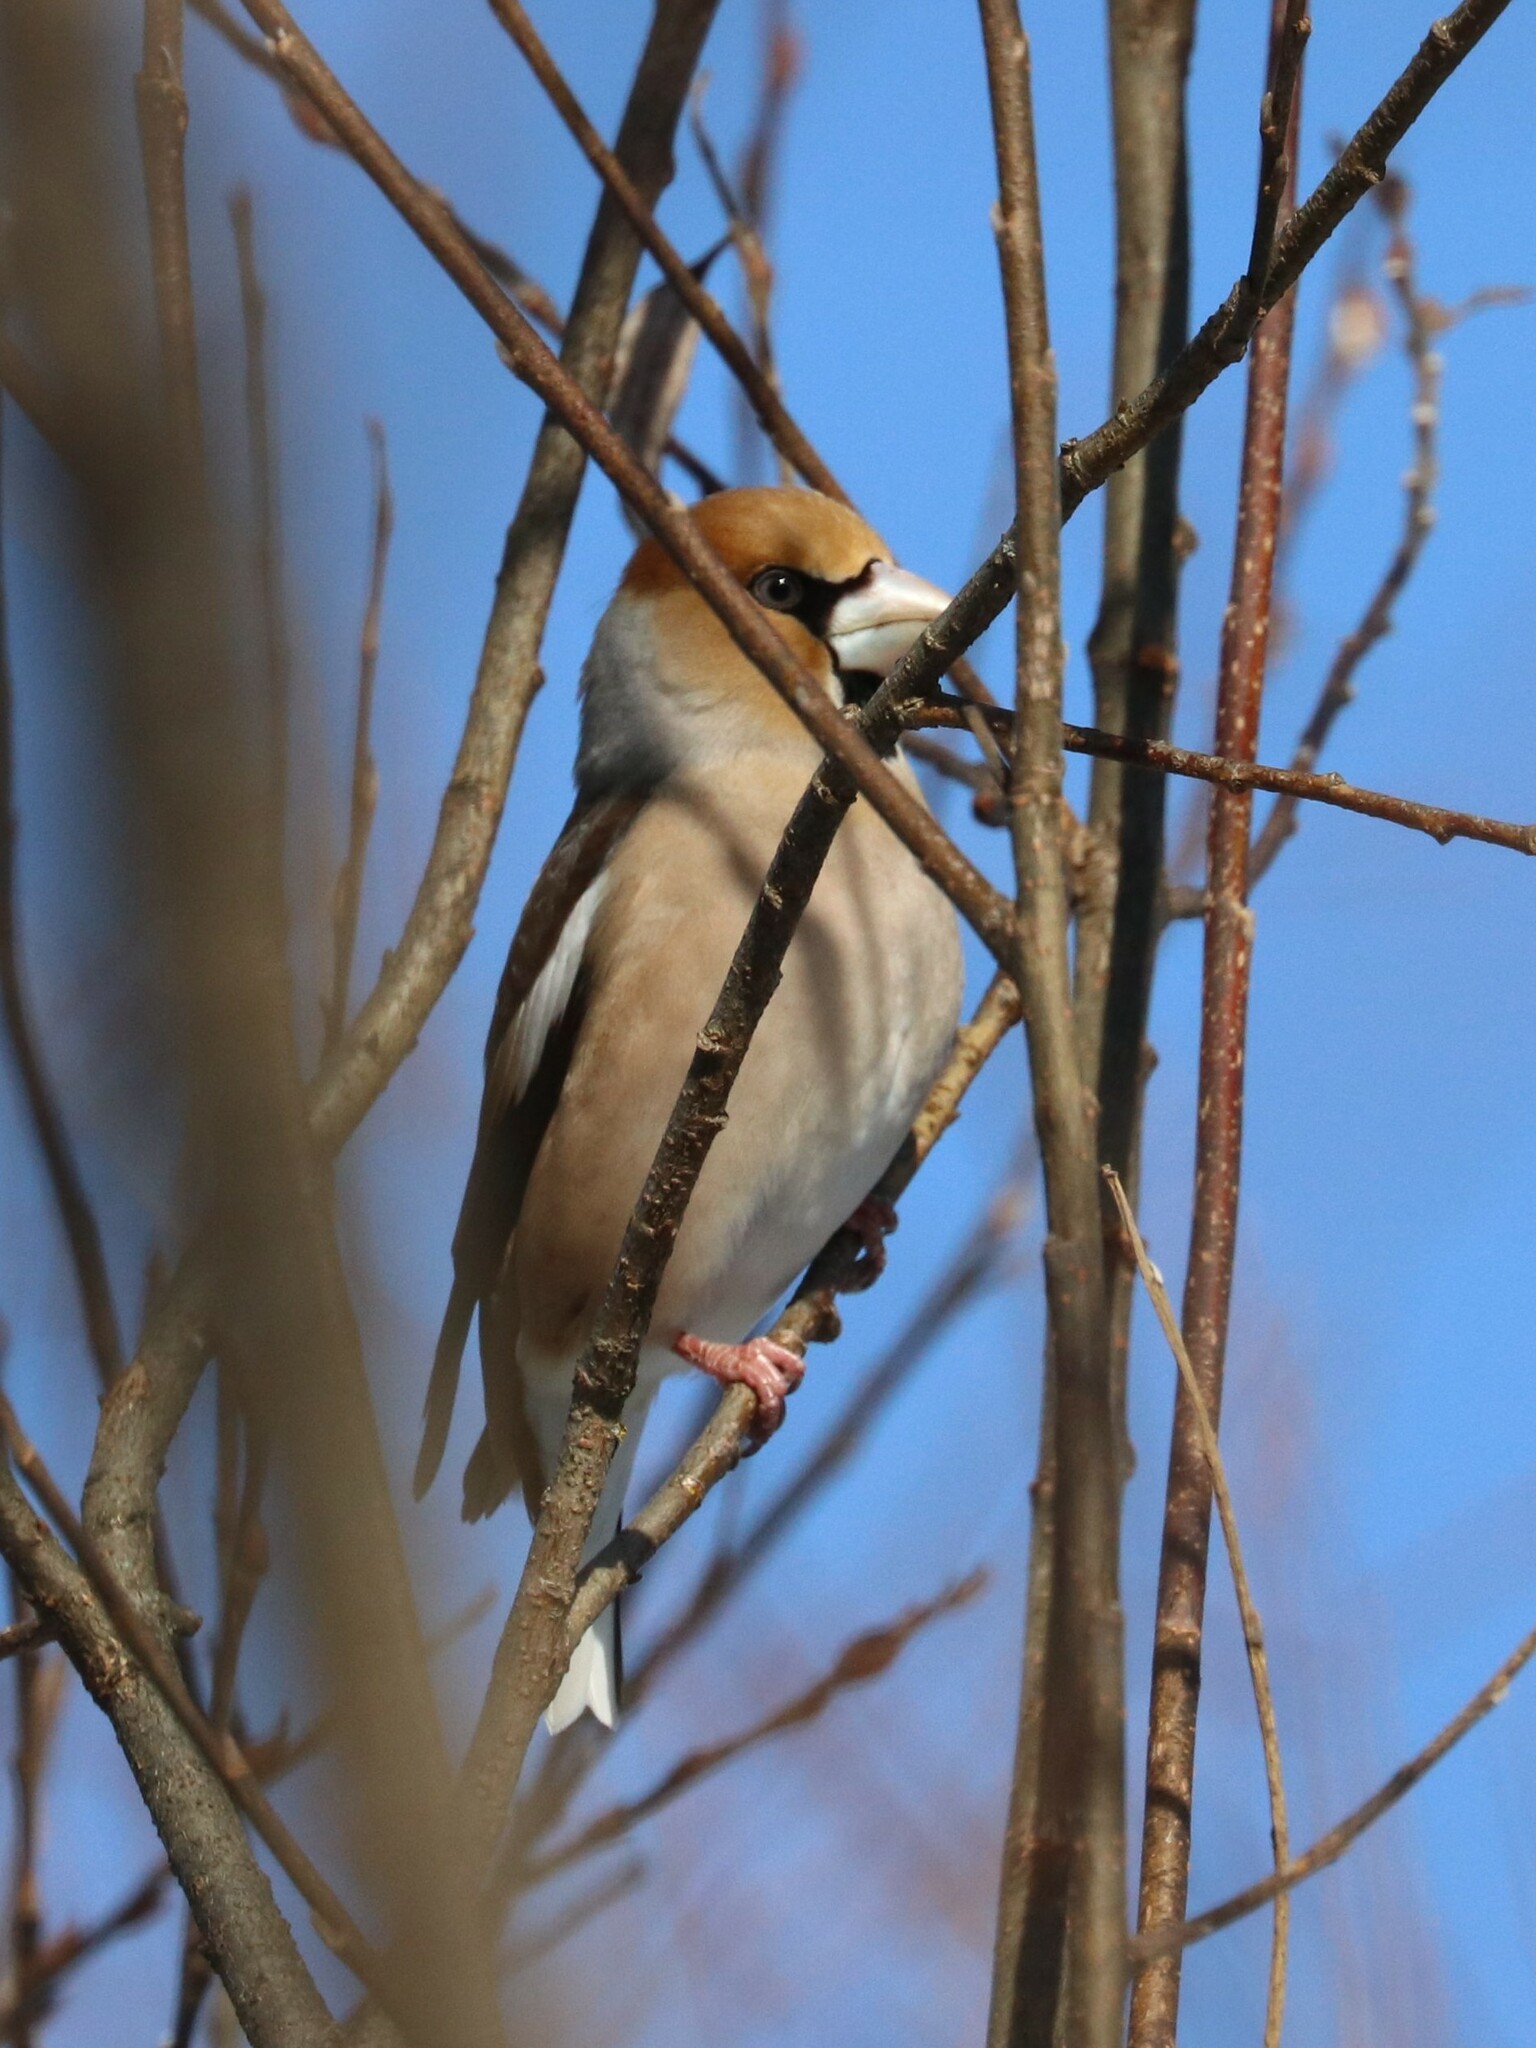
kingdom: Animalia
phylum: Chordata
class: Aves
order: Passeriformes
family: Fringillidae
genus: Coccothraustes
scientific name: Coccothraustes coccothraustes
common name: Hawfinch
